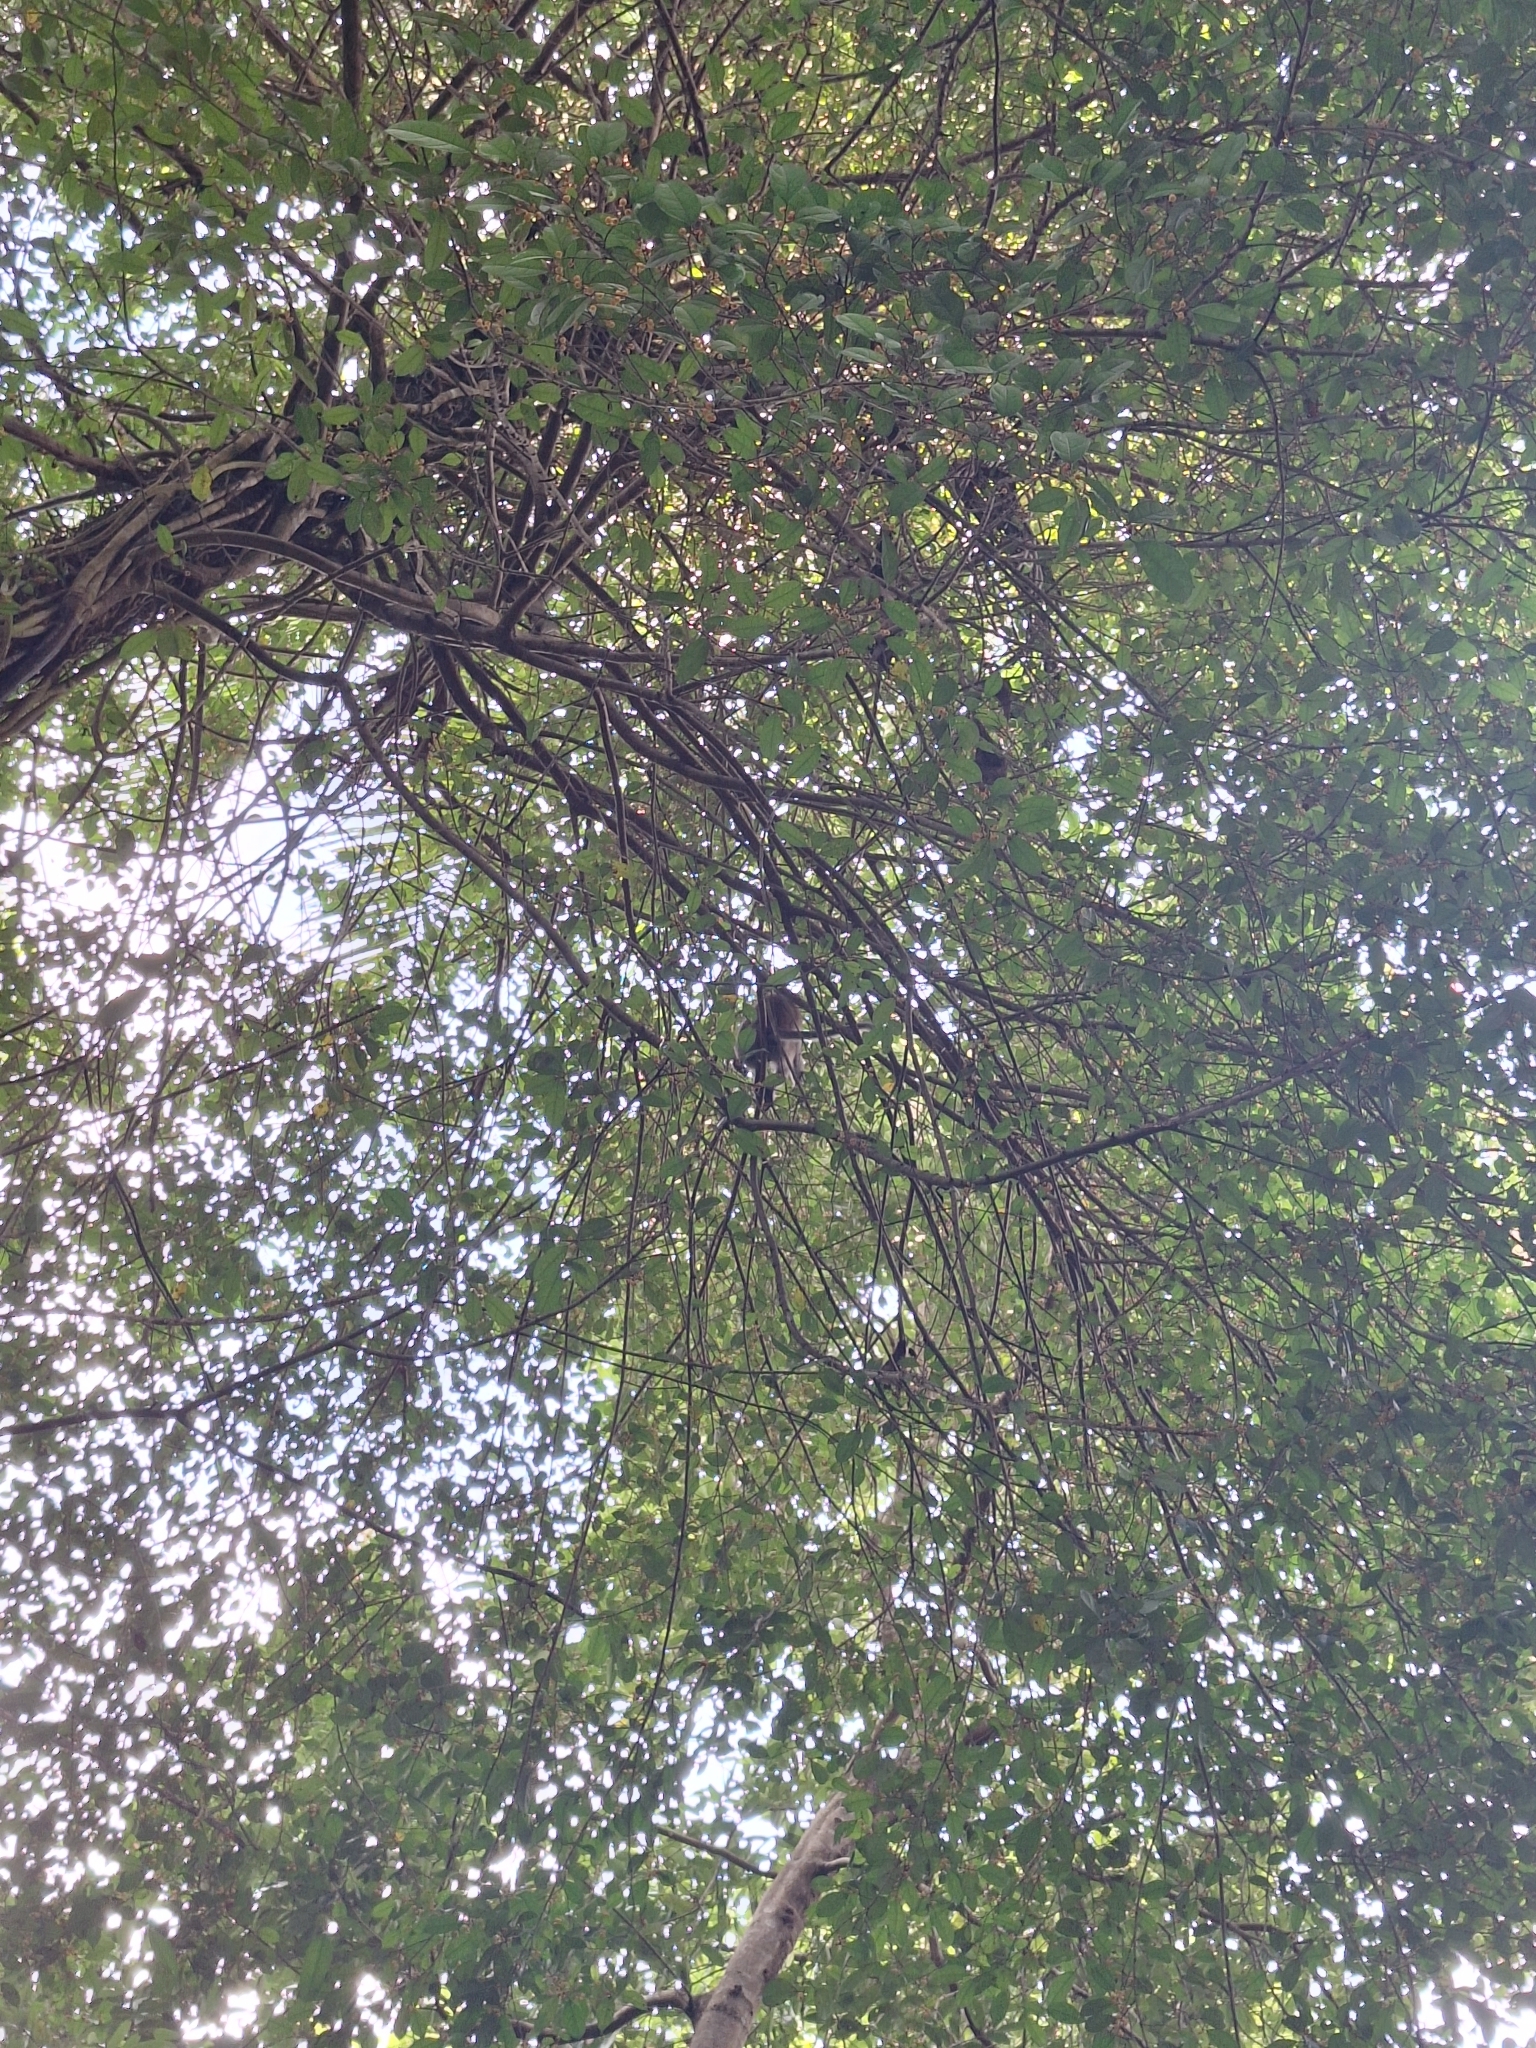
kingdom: Animalia
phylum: Chordata
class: Mammalia
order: Primates
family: Cercopithecidae
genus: Macaca
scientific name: Macaca fascicularis
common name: Crab-eating macaque
